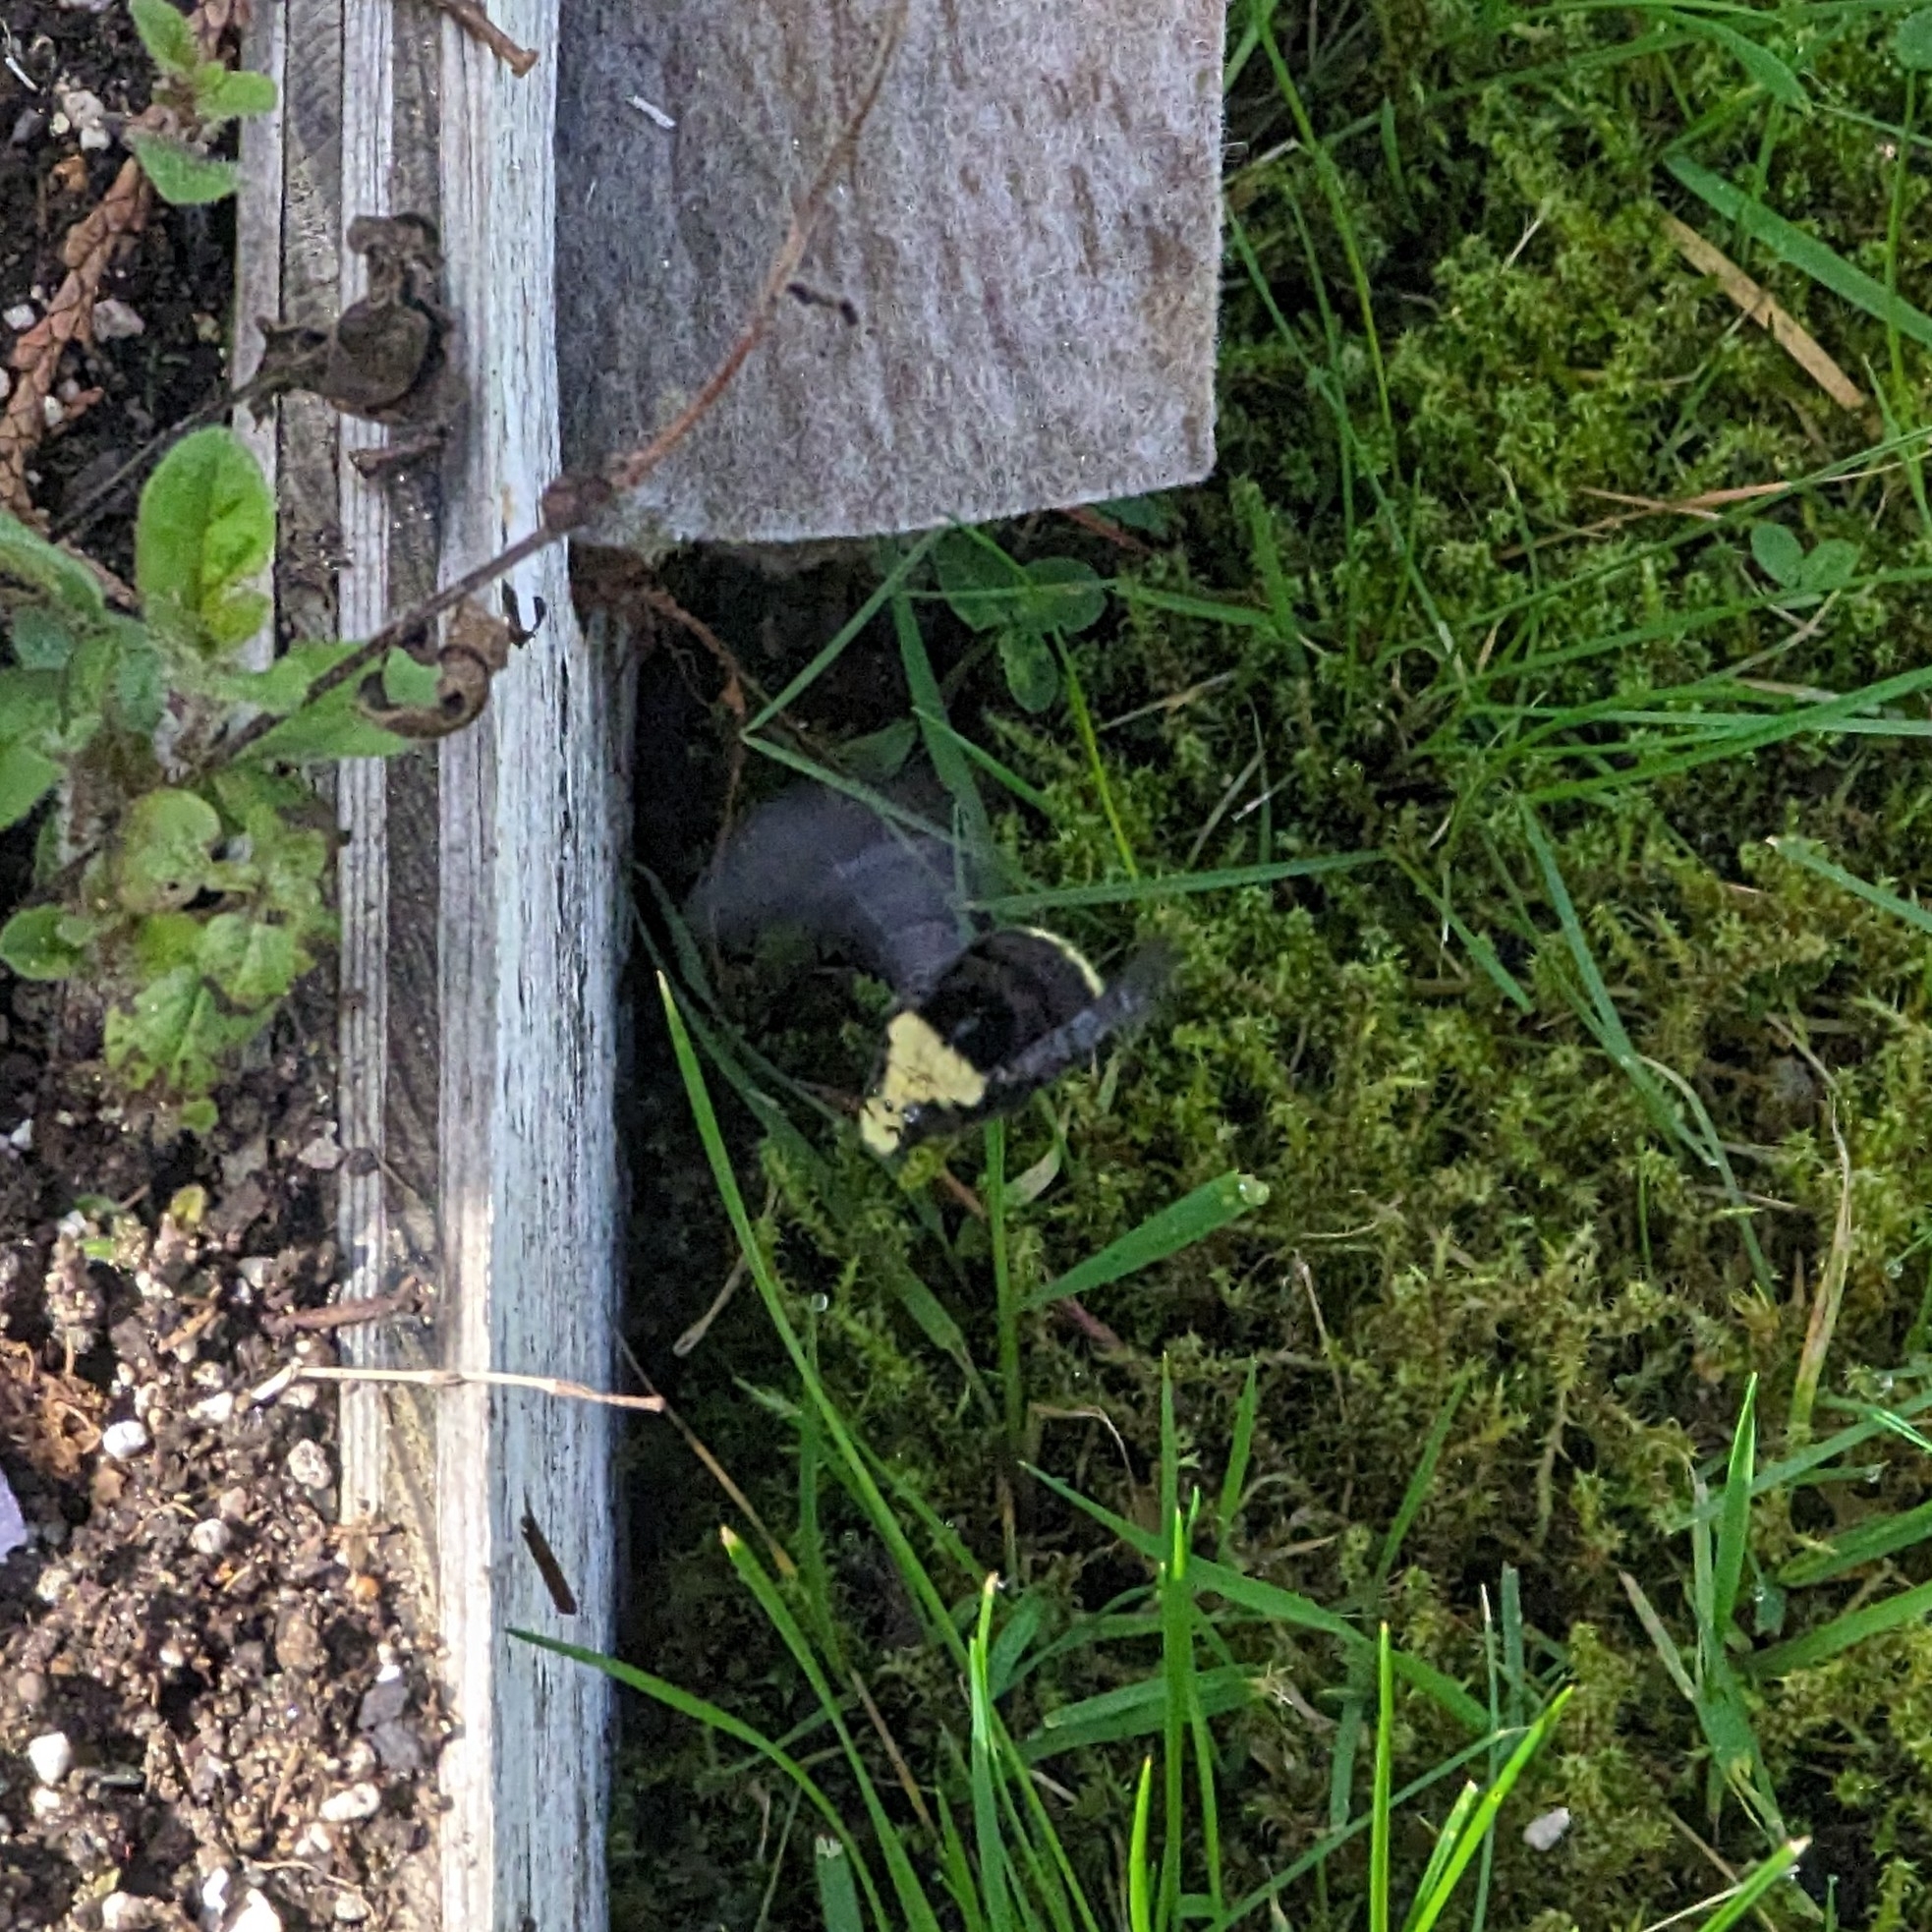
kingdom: Animalia
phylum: Arthropoda
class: Insecta
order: Hymenoptera
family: Apidae
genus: Bombus
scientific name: Bombus vosnesenskii
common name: Vosnesensky bumble bee
